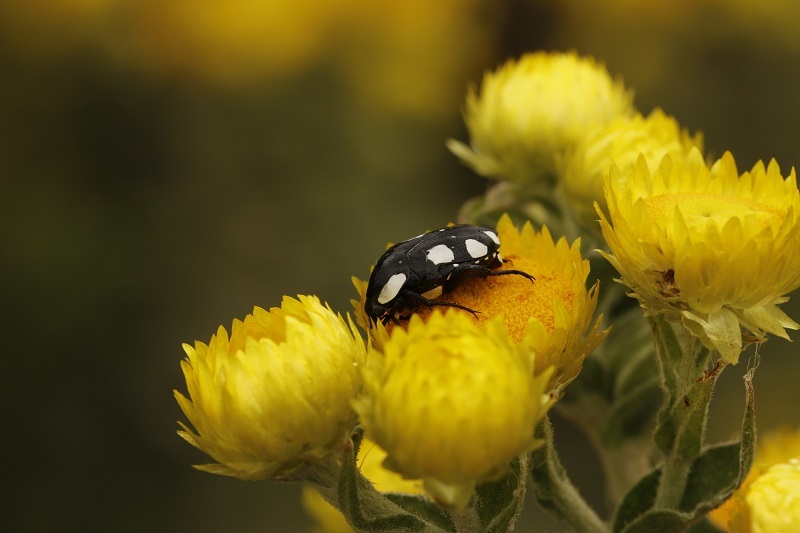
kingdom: Animalia
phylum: Arthropoda
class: Insecta
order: Coleoptera
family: Scarabaeidae
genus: Mausoleopsis
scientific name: Mausoleopsis amabilis
